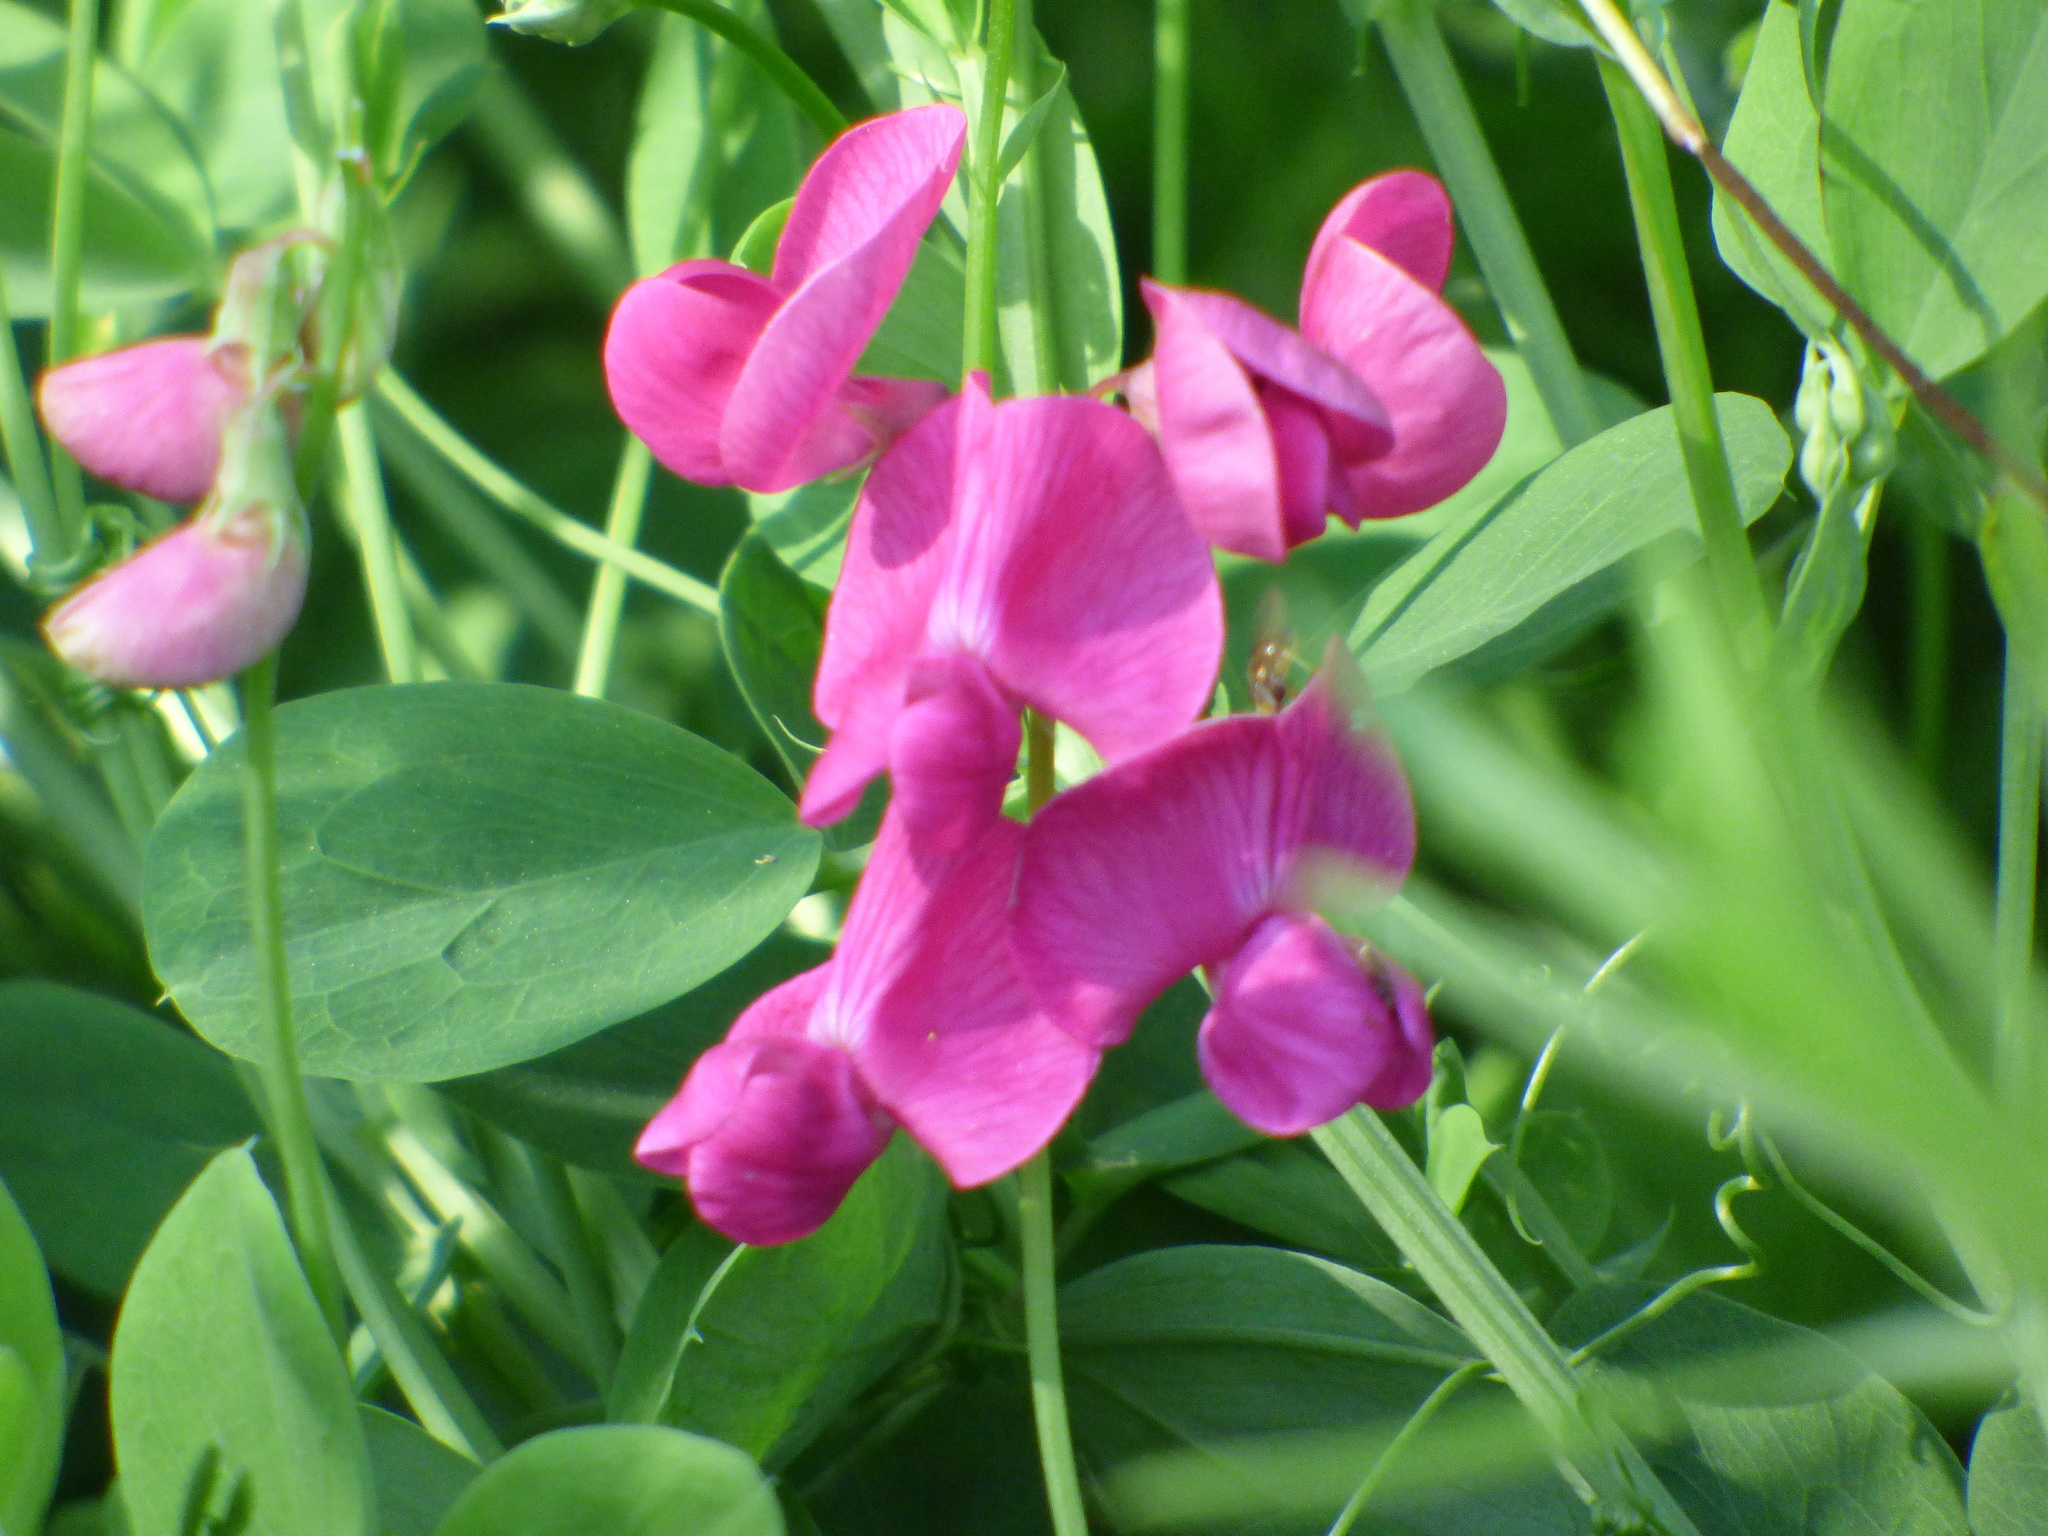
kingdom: Plantae
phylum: Tracheophyta
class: Magnoliopsida
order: Fabales
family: Fabaceae
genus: Lathyrus
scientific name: Lathyrus tuberosus
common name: Tuberous pea
